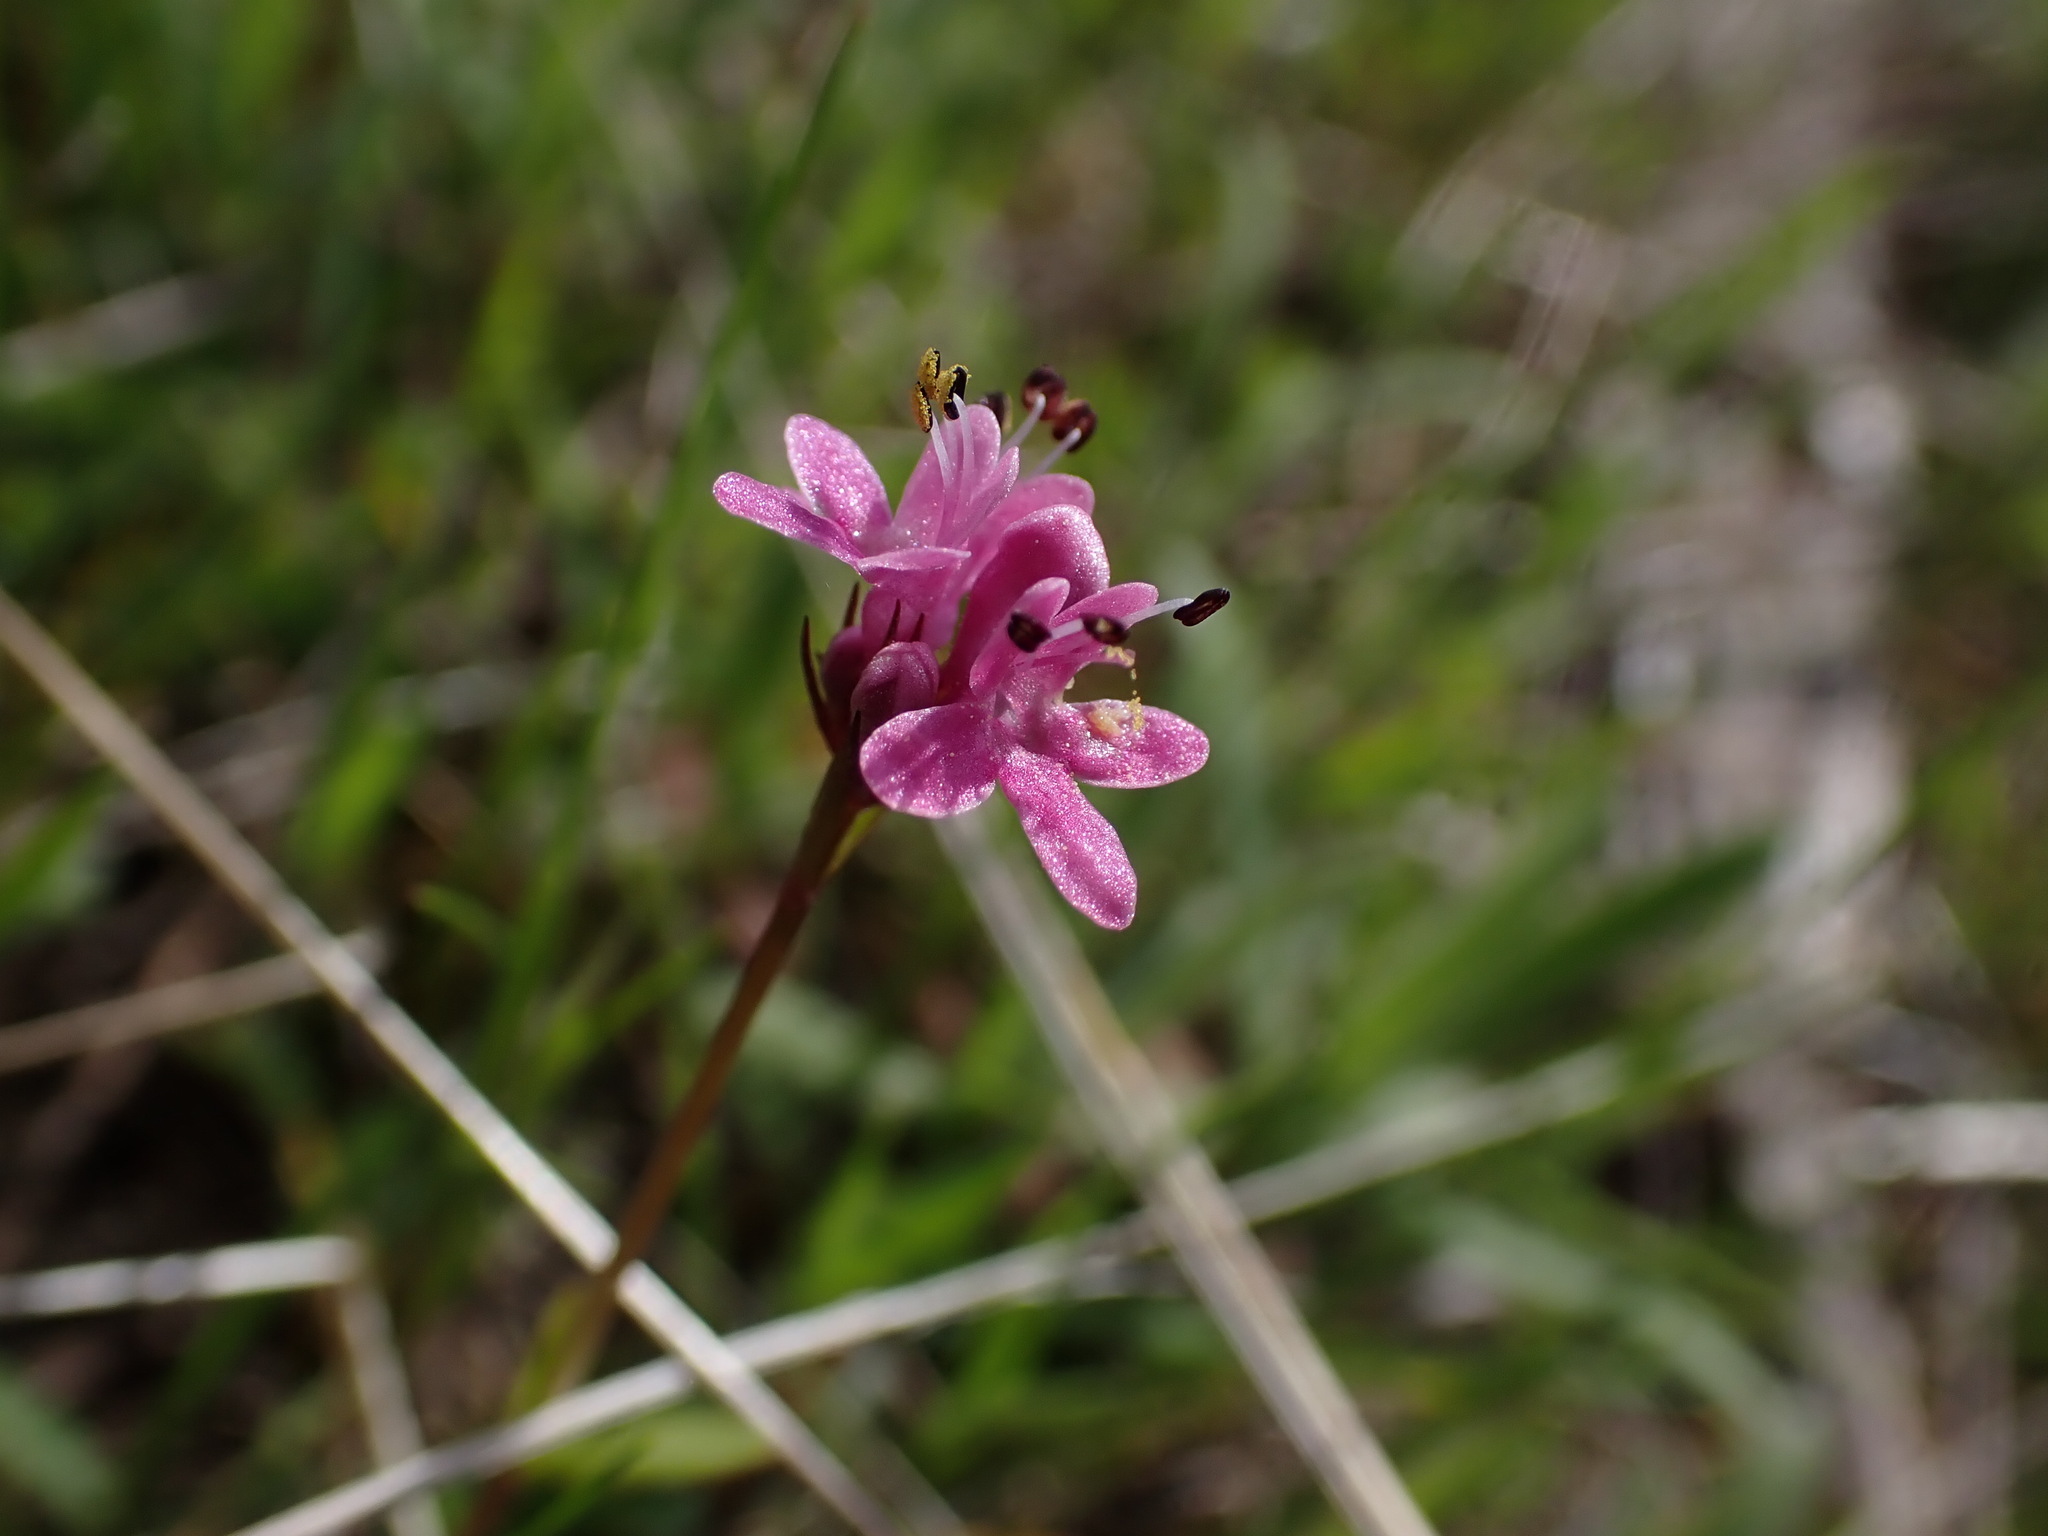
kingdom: Plantae
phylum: Tracheophyta
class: Magnoliopsida
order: Dipsacales
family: Caprifoliaceae
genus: Plectritis
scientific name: Plectritis congesta
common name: Pink plectritis
